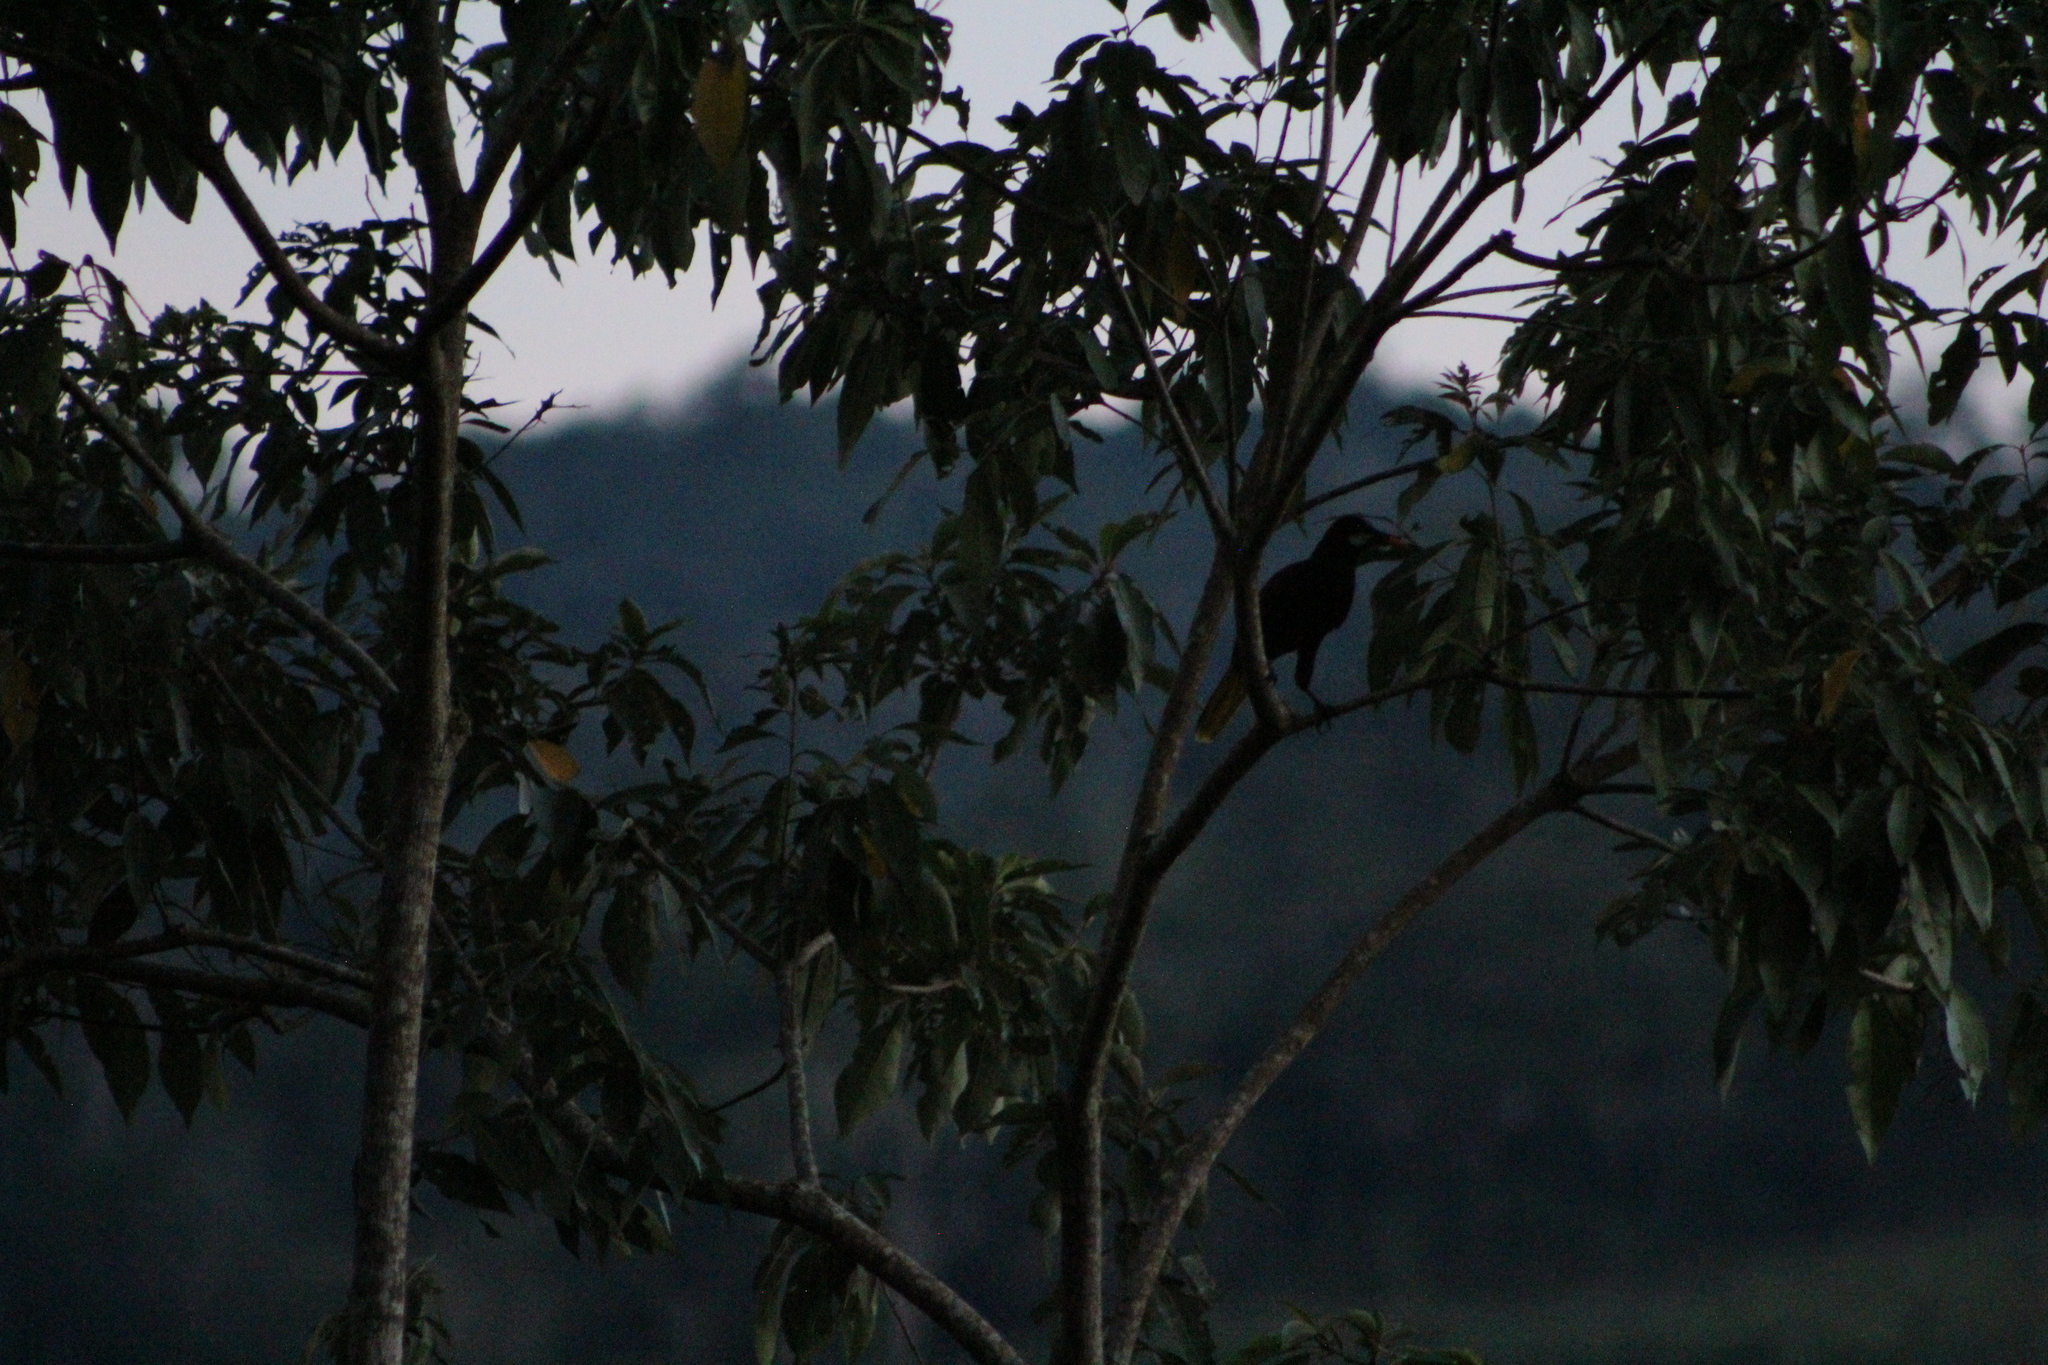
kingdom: Animalia
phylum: Chordata
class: Aves
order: Passeriformes
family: Icteridae
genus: Psarocolius
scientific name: Psarocolius montezuma
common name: Montezuma oropendola
